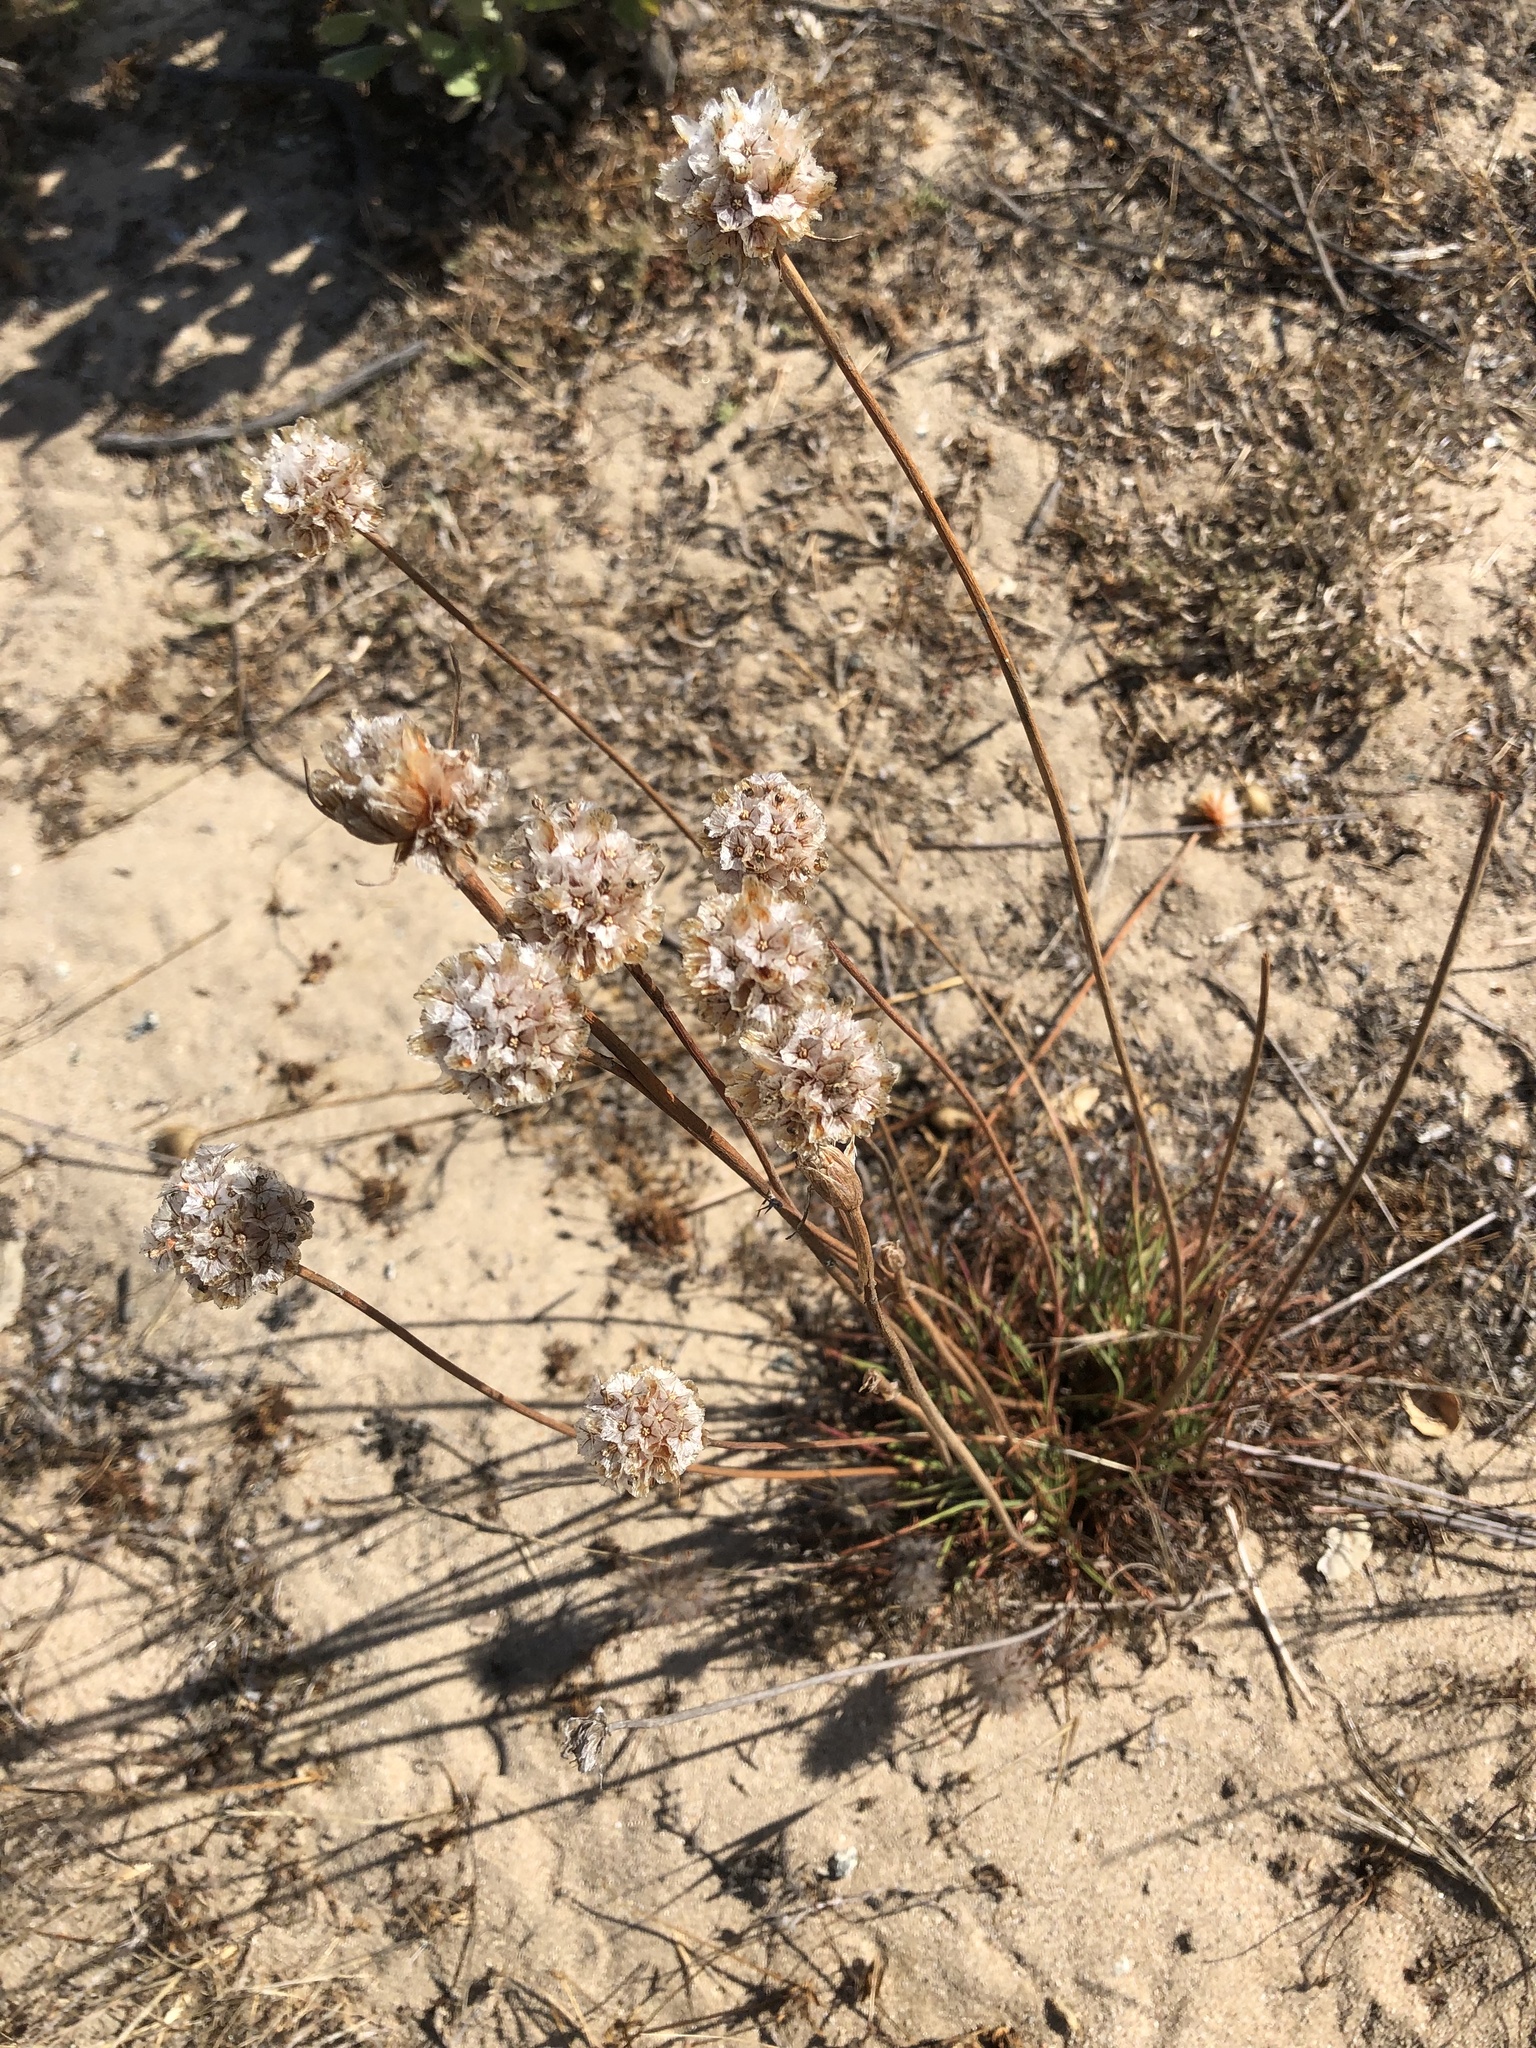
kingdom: Plantae
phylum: Tracheophyta
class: Magnoliopsida
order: Caryophyllales
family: Plumbaginaceae
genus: Armeria
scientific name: Armeria maritima
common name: Thrift
